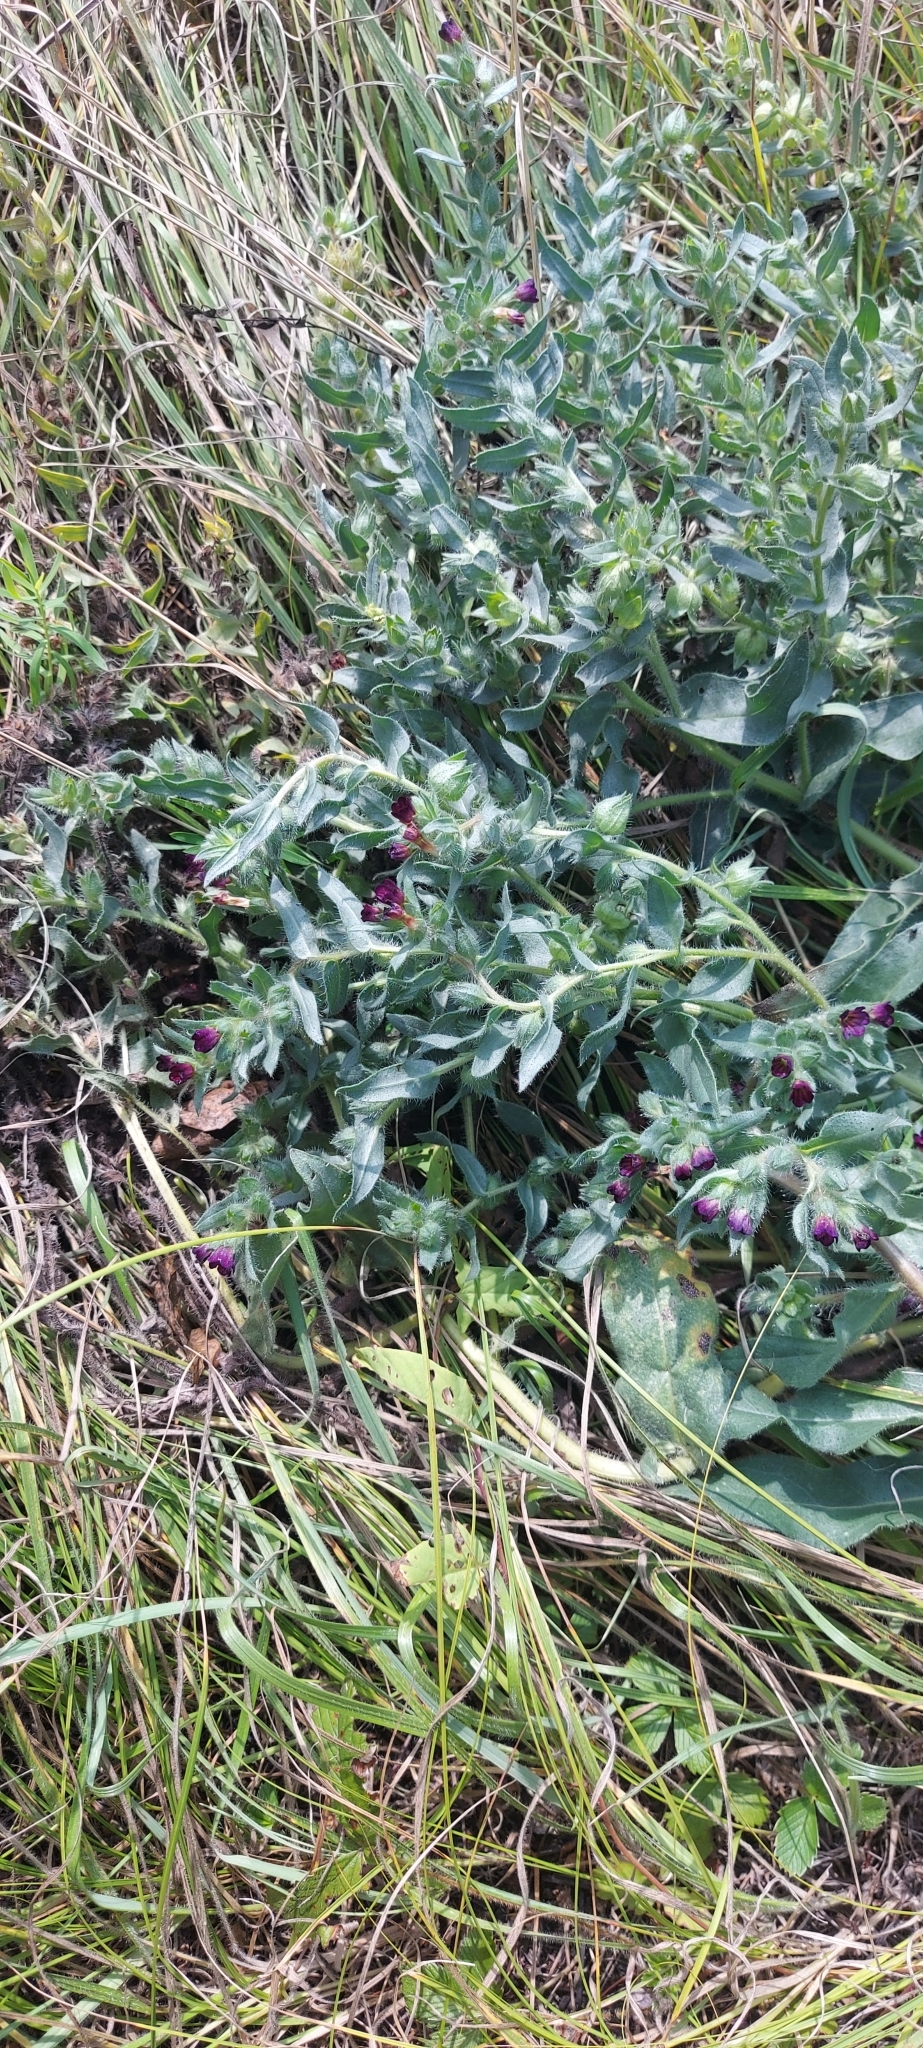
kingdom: Plantae
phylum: Tracheophyta
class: Magnoliopsida
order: Boraginales
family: Boraginaceae
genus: Nonea
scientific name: Nonea pulla
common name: Brown nonea
